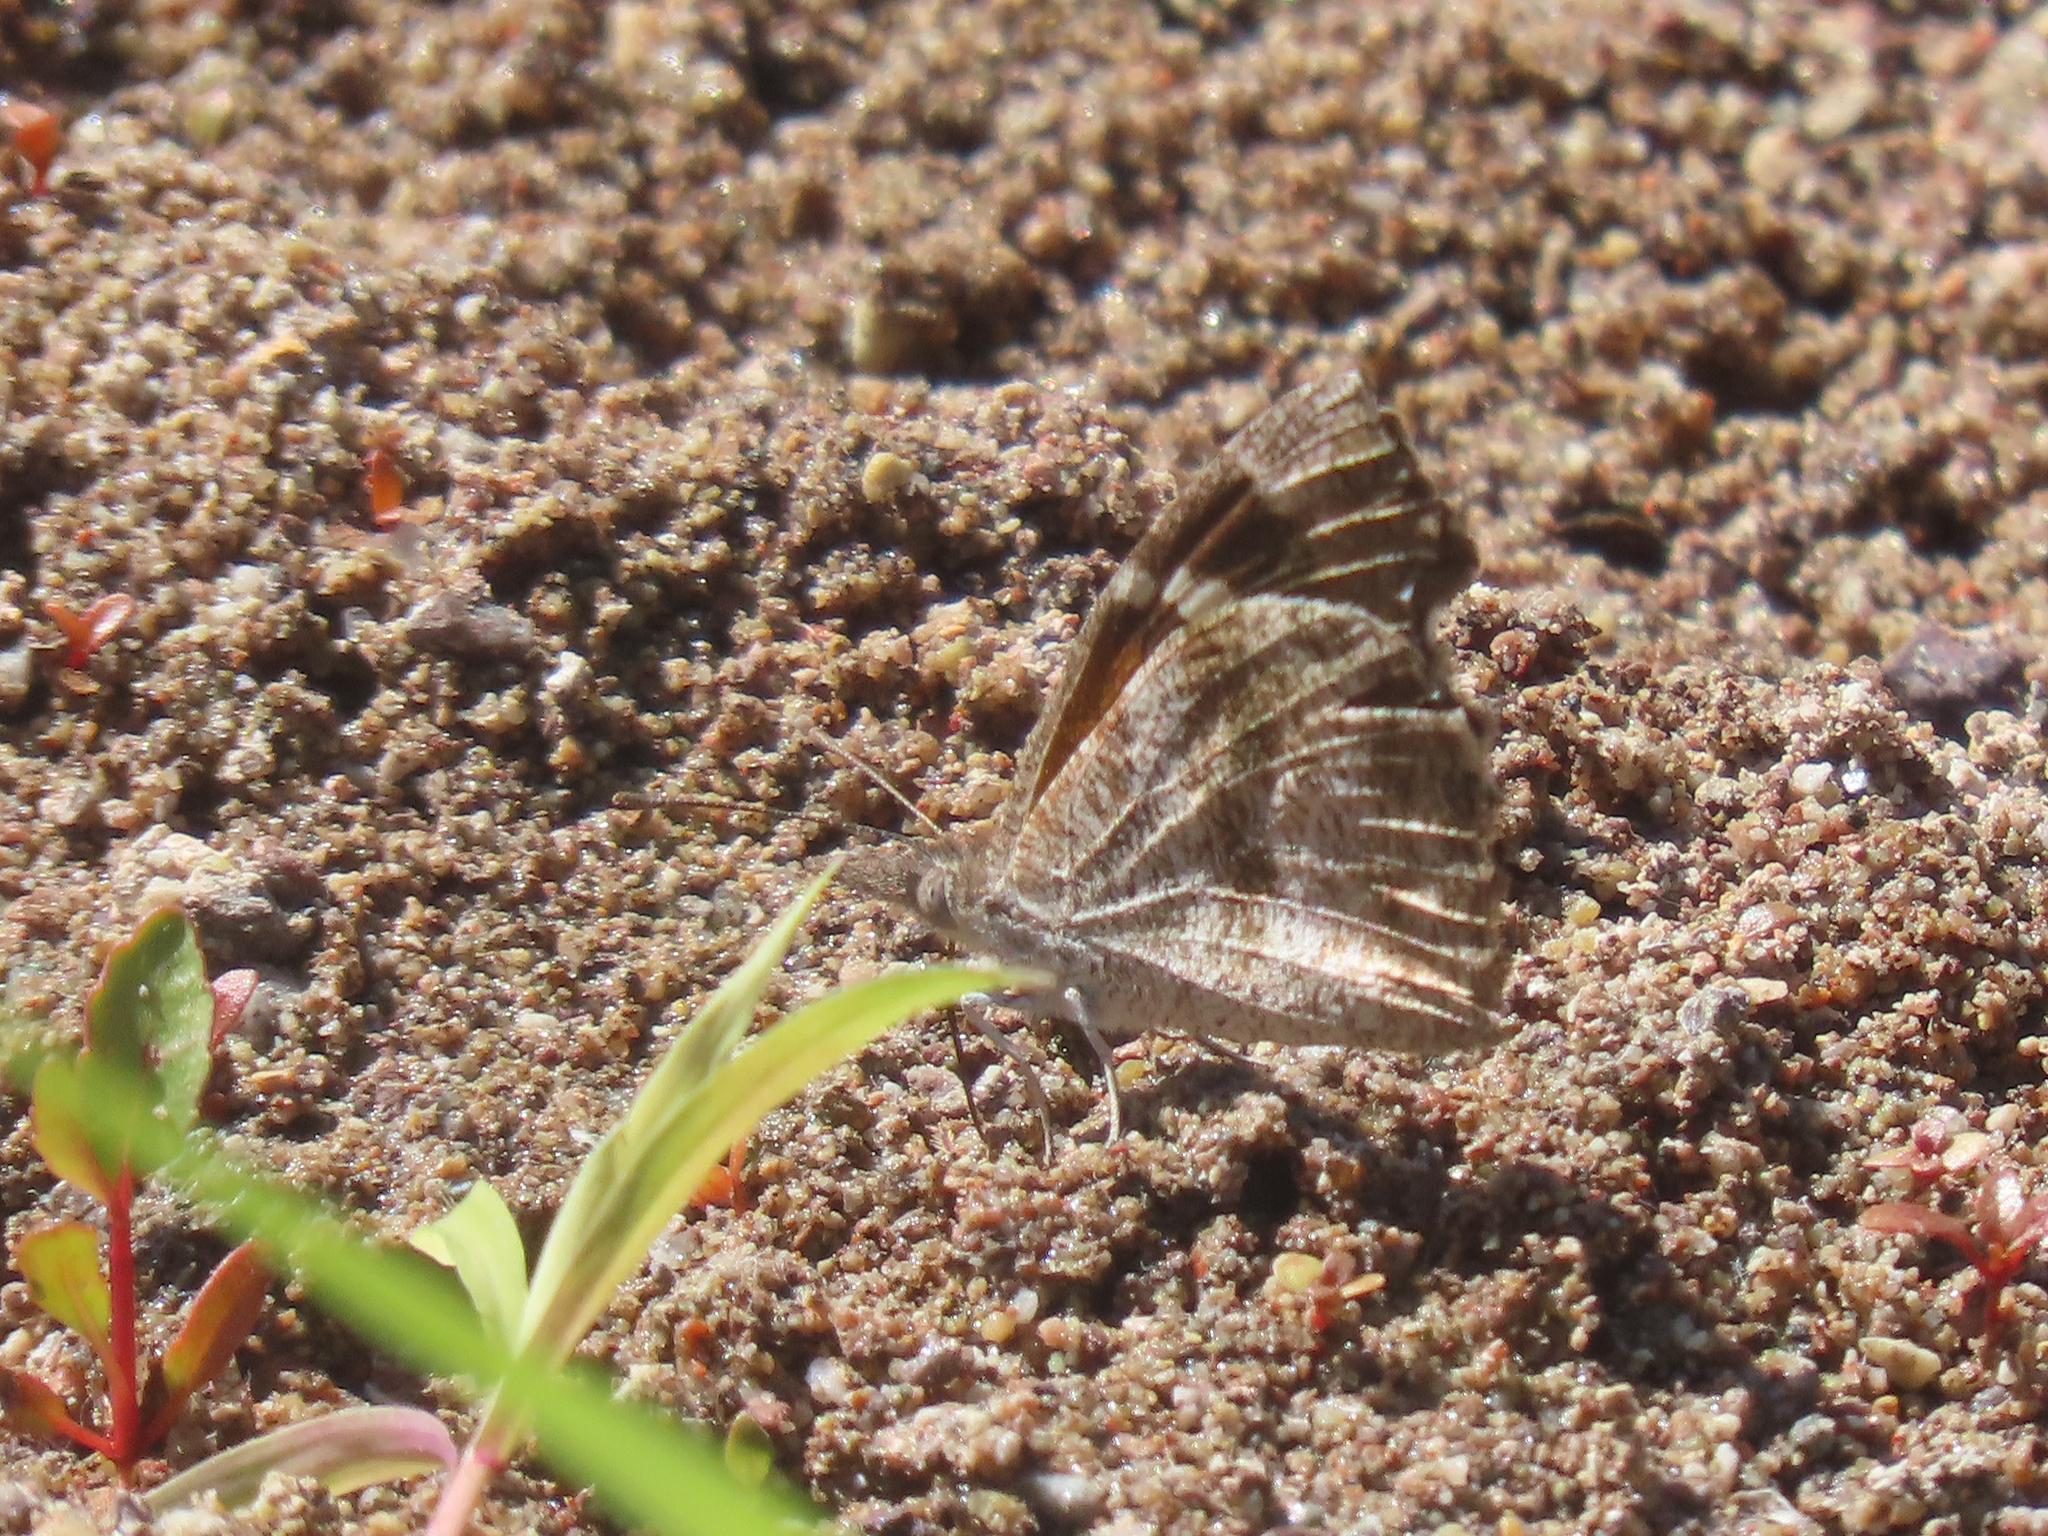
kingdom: Animalia
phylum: Arthropoda
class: Insecta
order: Lepidoptera
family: Nymphalidae
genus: Libytheana
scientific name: Libytheana carinenta
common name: American snout
